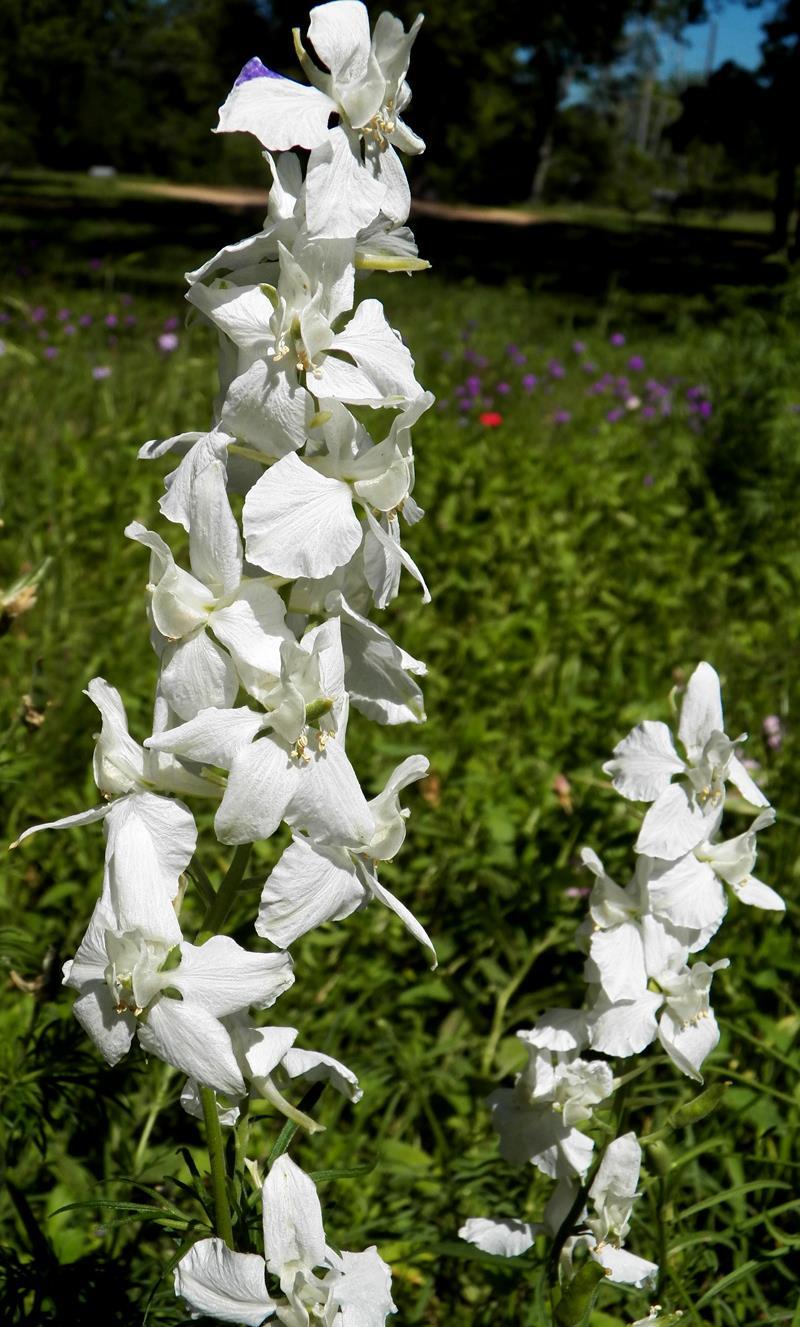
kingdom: Plantae
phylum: Tracheophyta
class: Magnoliopsida
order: Ranunculales
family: Ranunculaceae
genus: Delphinium
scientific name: Delphinium ajacis
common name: Doubtful knight's-spur
